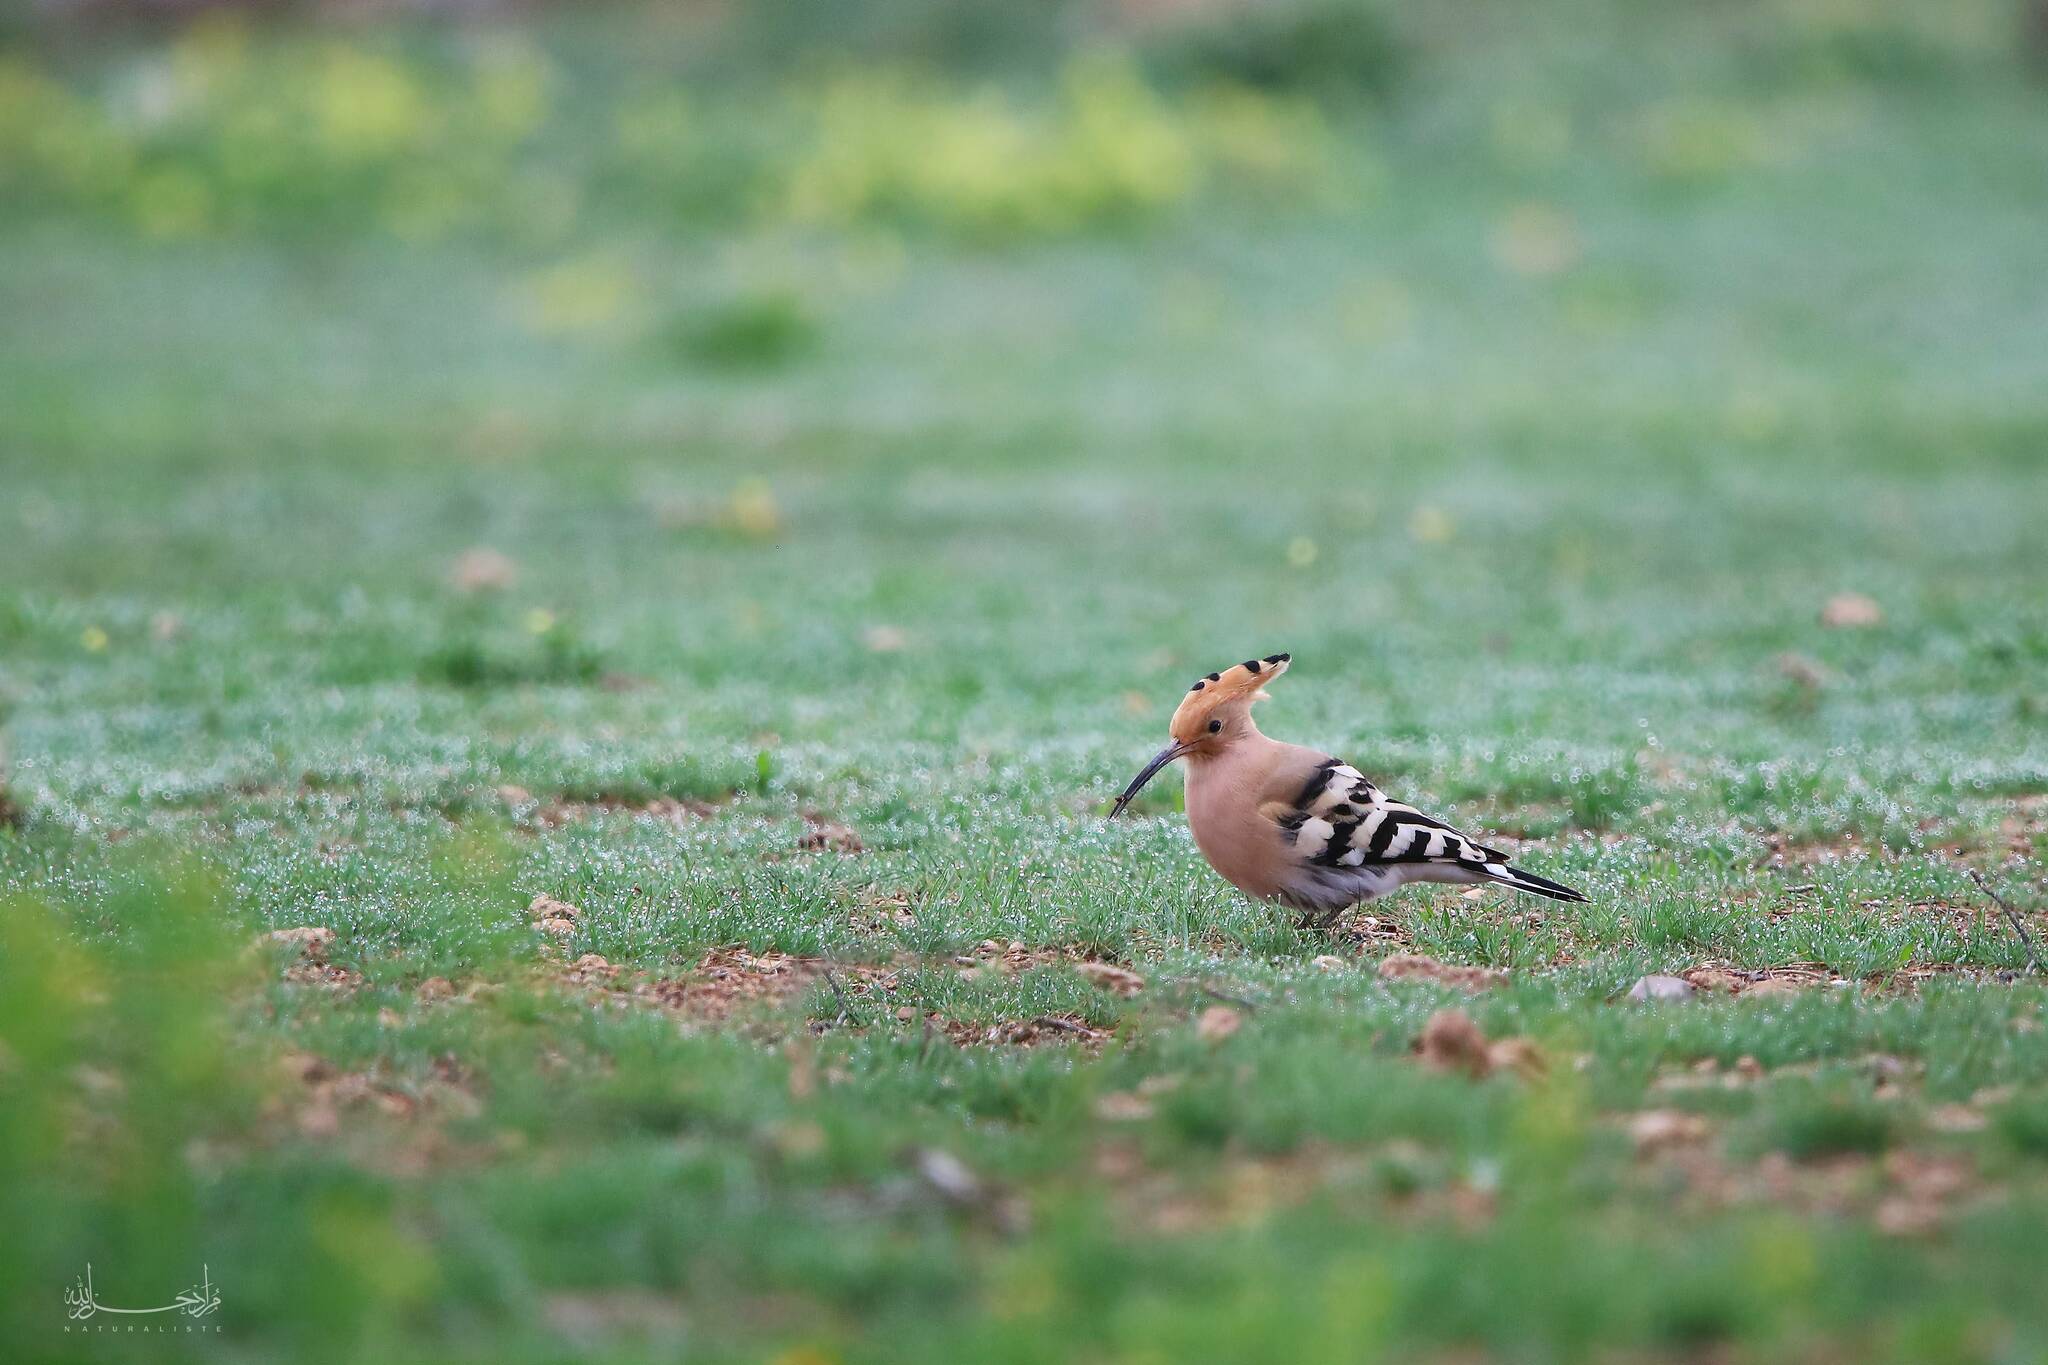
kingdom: Animalia
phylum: Chordata
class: Aves
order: Bucerotiformes
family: Upupidae
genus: Upupa
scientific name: Upupa epops
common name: Eurasian hoopoe
